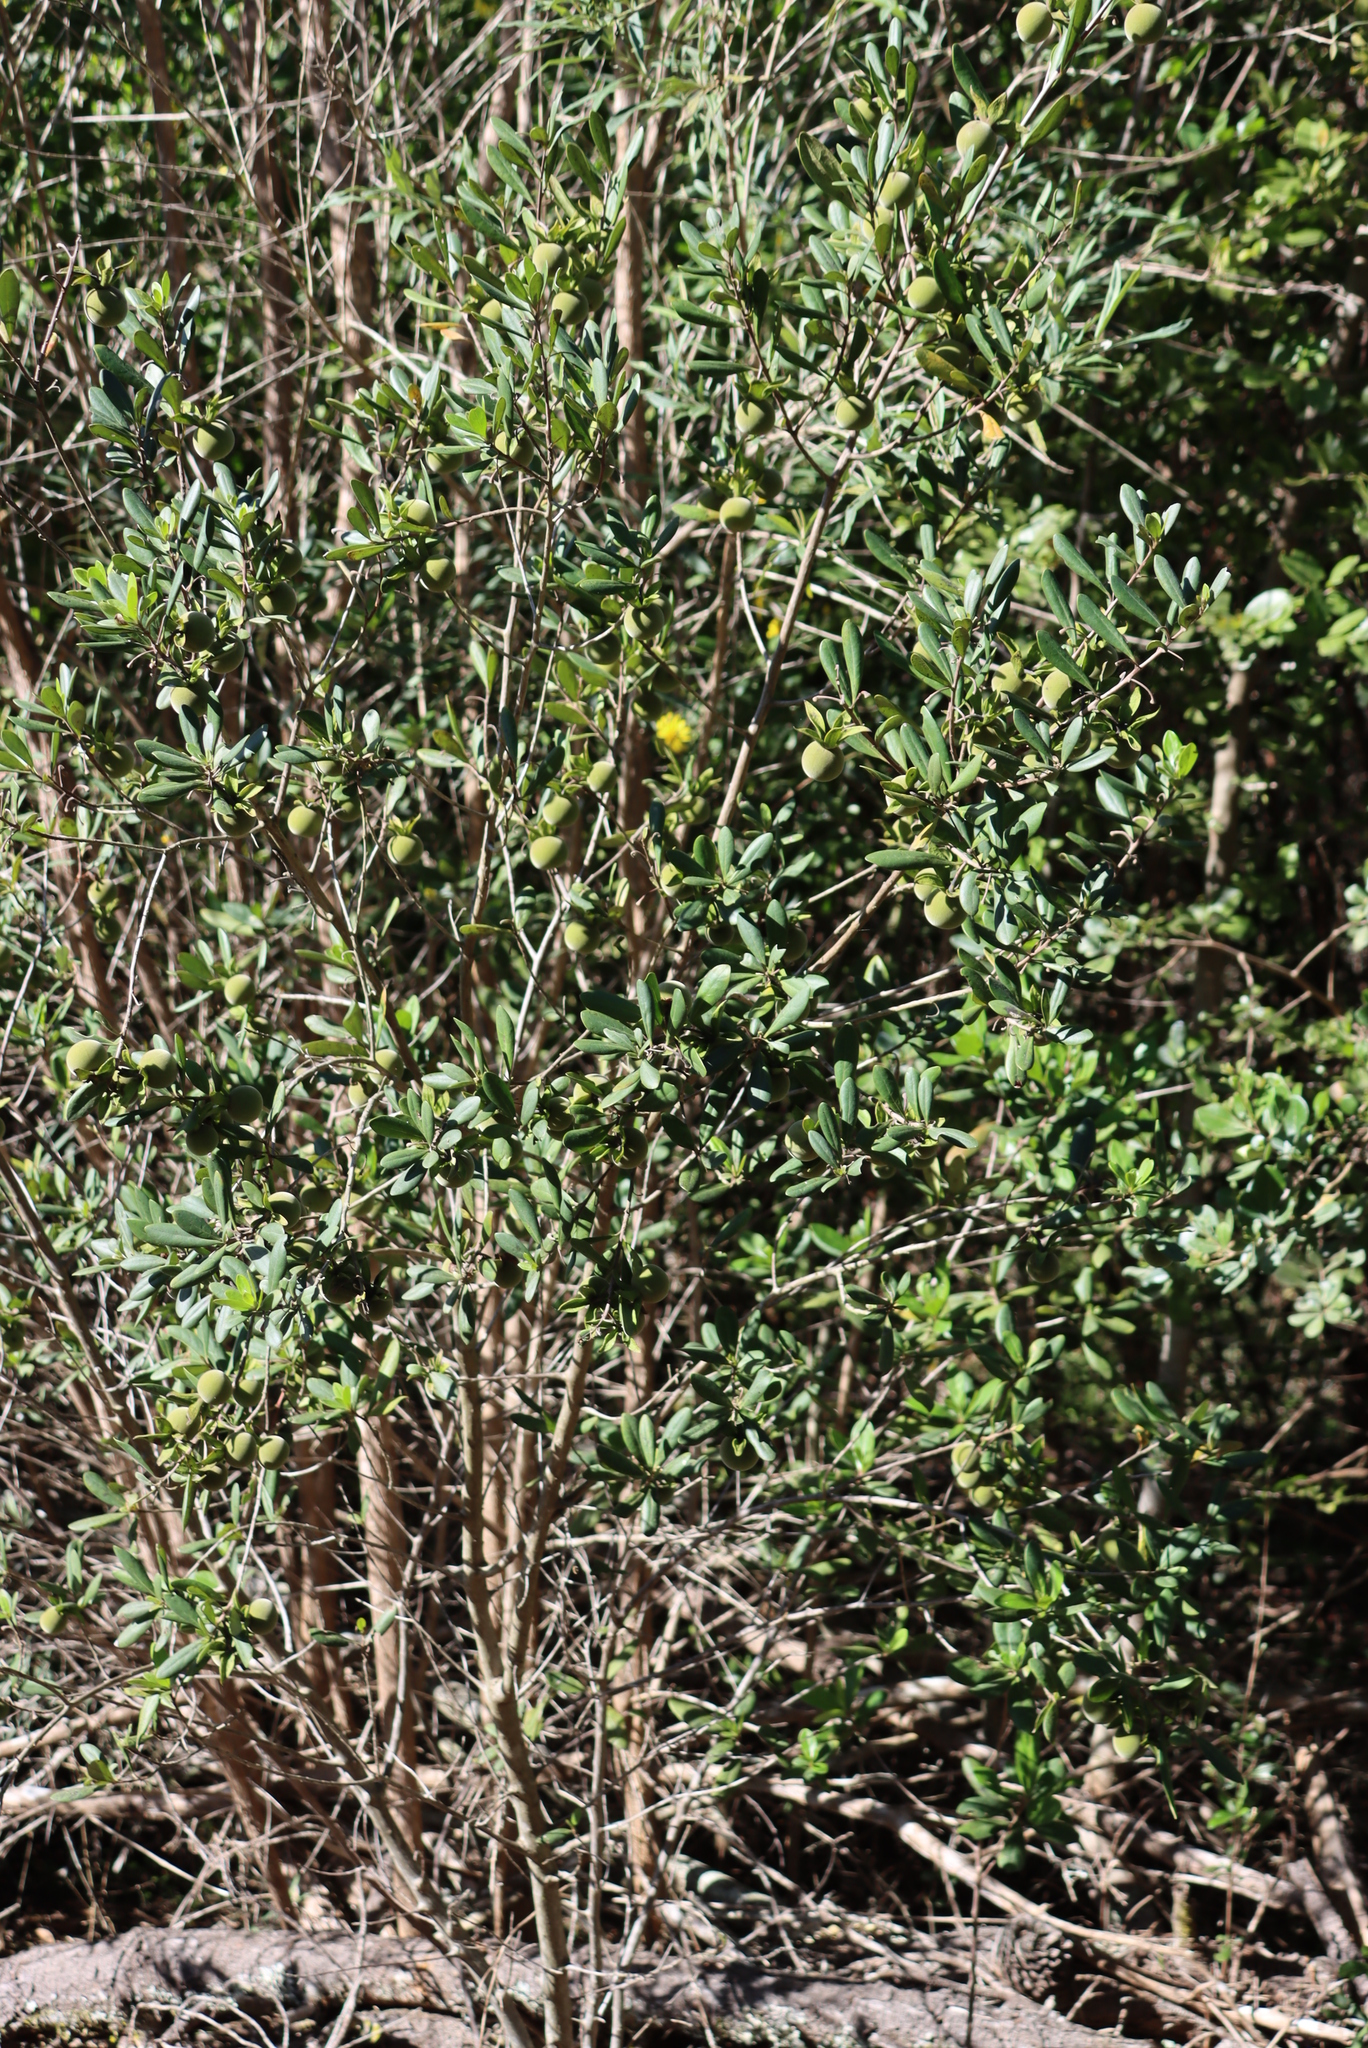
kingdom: Plantae
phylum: Tracheophyta
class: Magnoliopsida
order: Ericales
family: Ebenaceae
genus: Diospyros
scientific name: Diospyros dichrophylla
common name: Common star-apple
